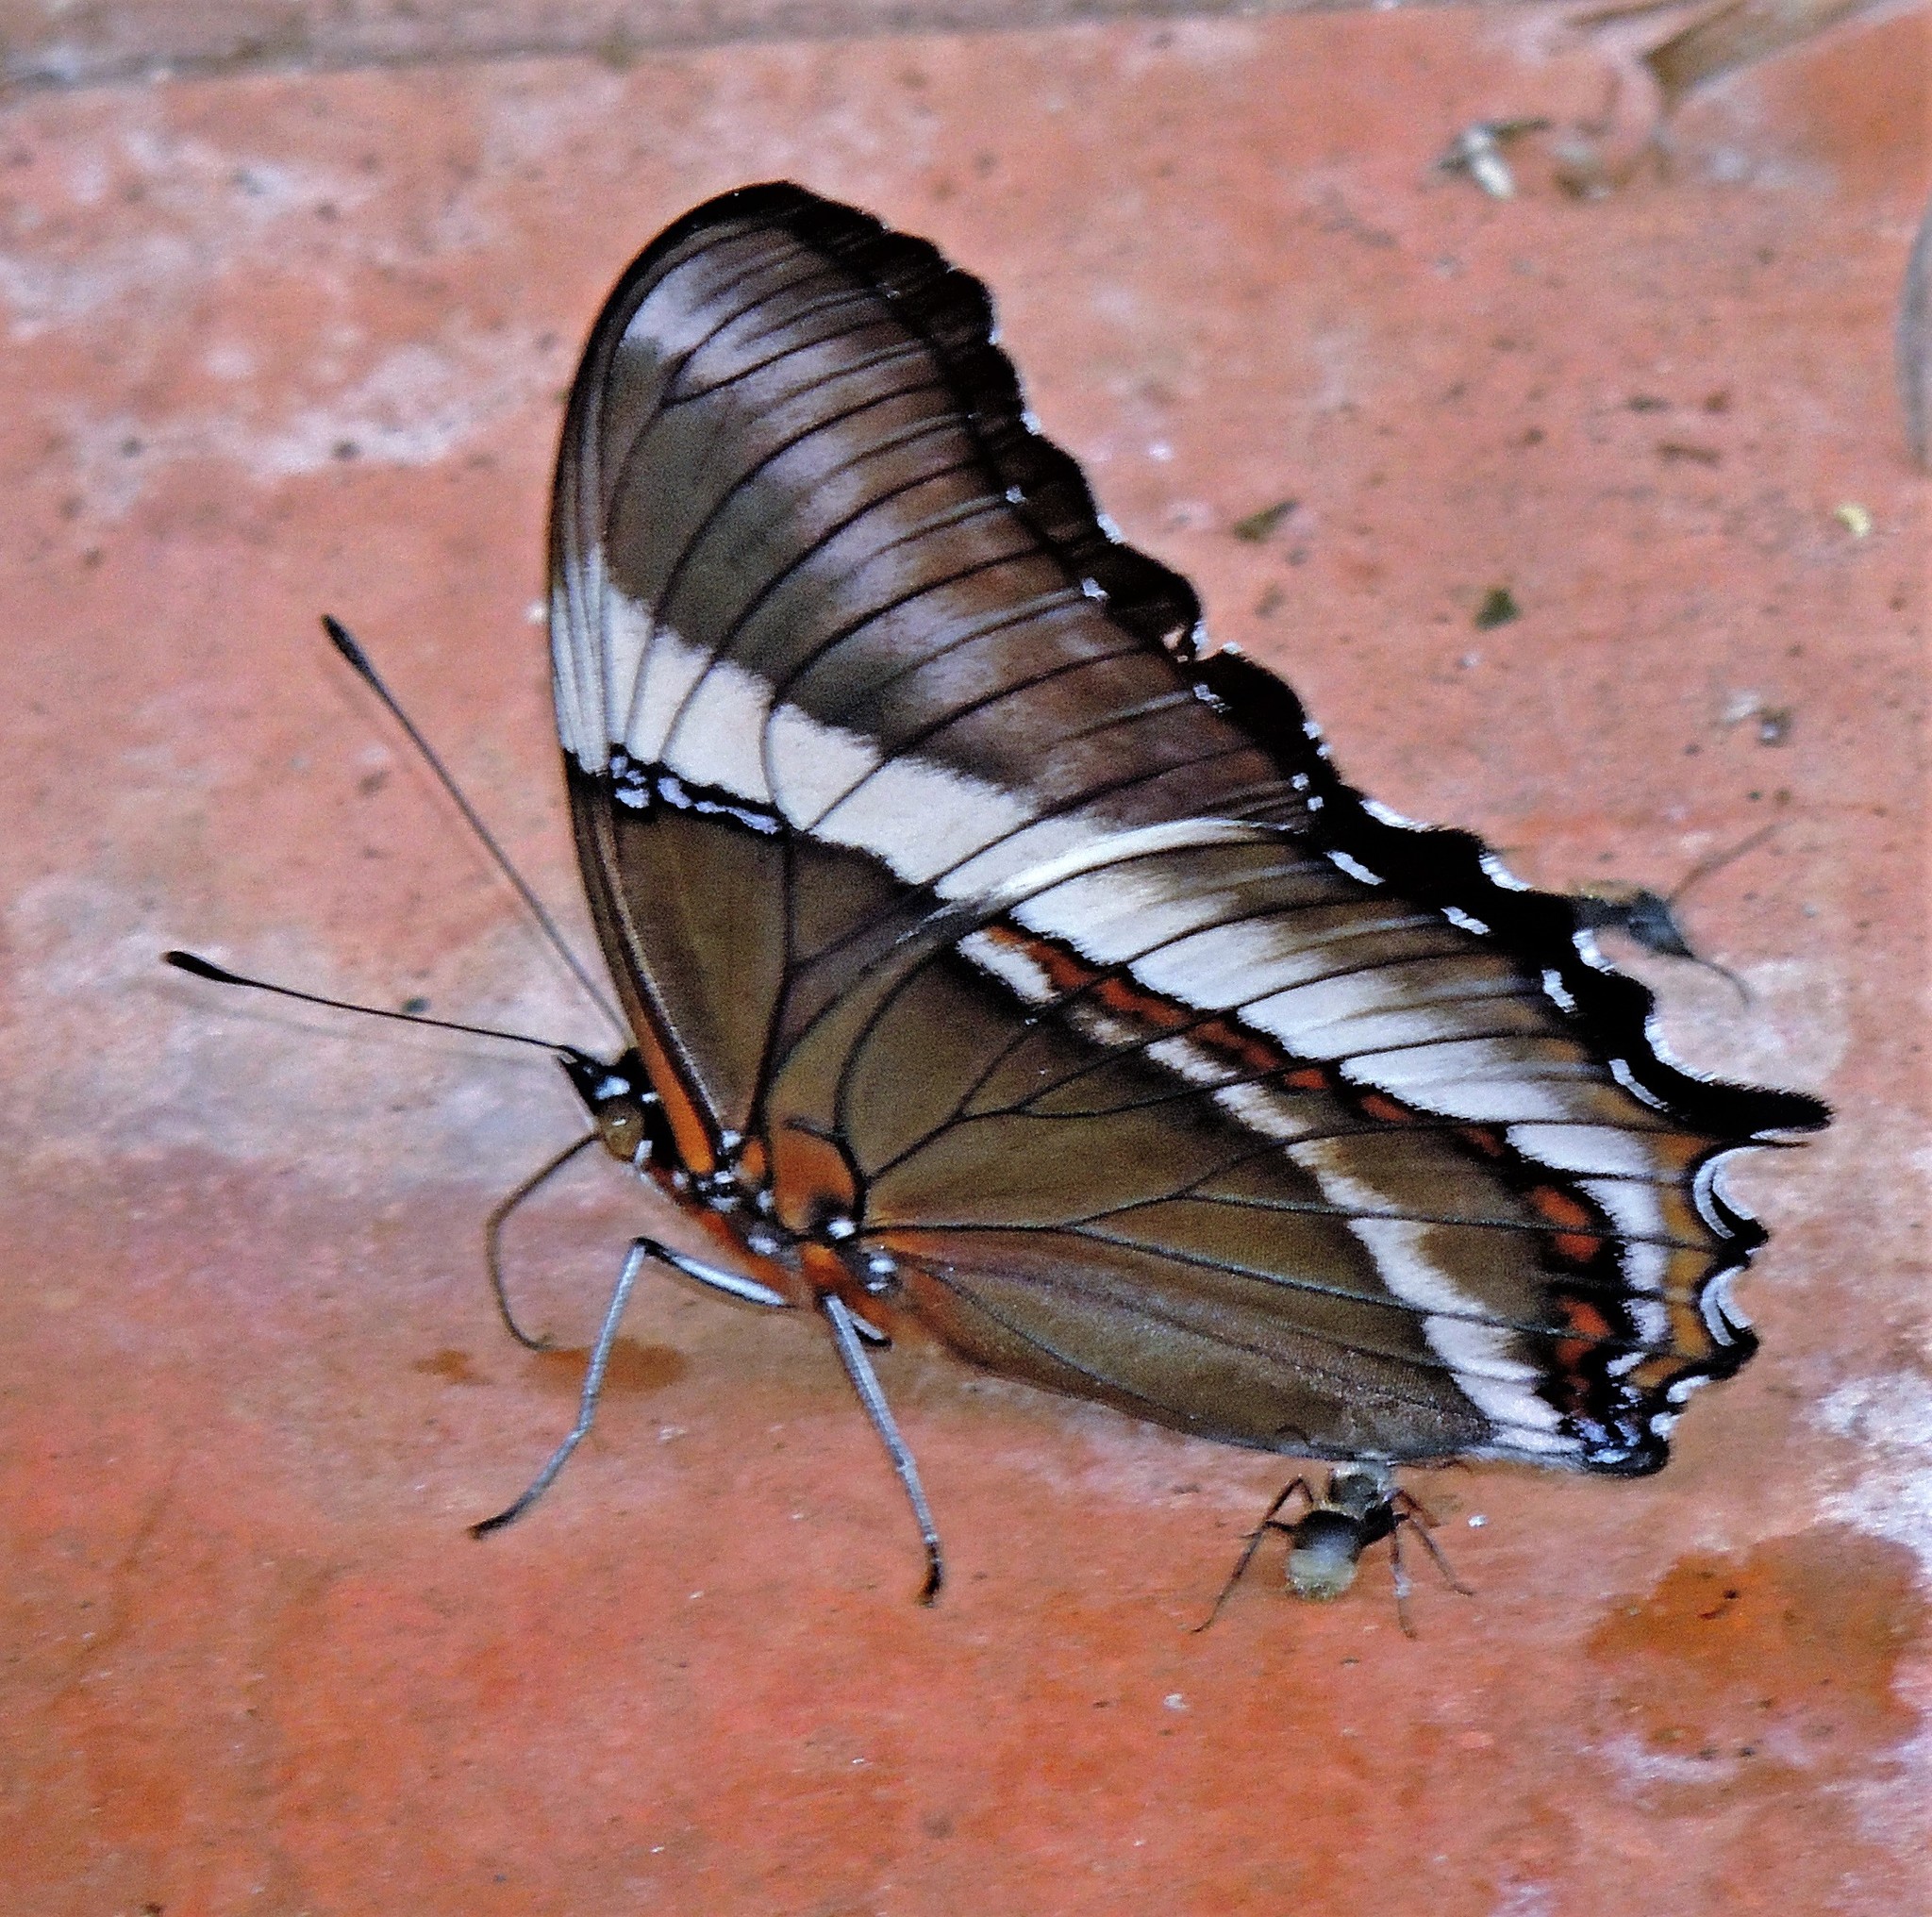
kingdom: Animalia
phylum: Arthropoda
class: Insecta
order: Lepidoptera
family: Nymphalidae
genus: Siproeta
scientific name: Siproeta epaphus
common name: Rusty-tipped page
